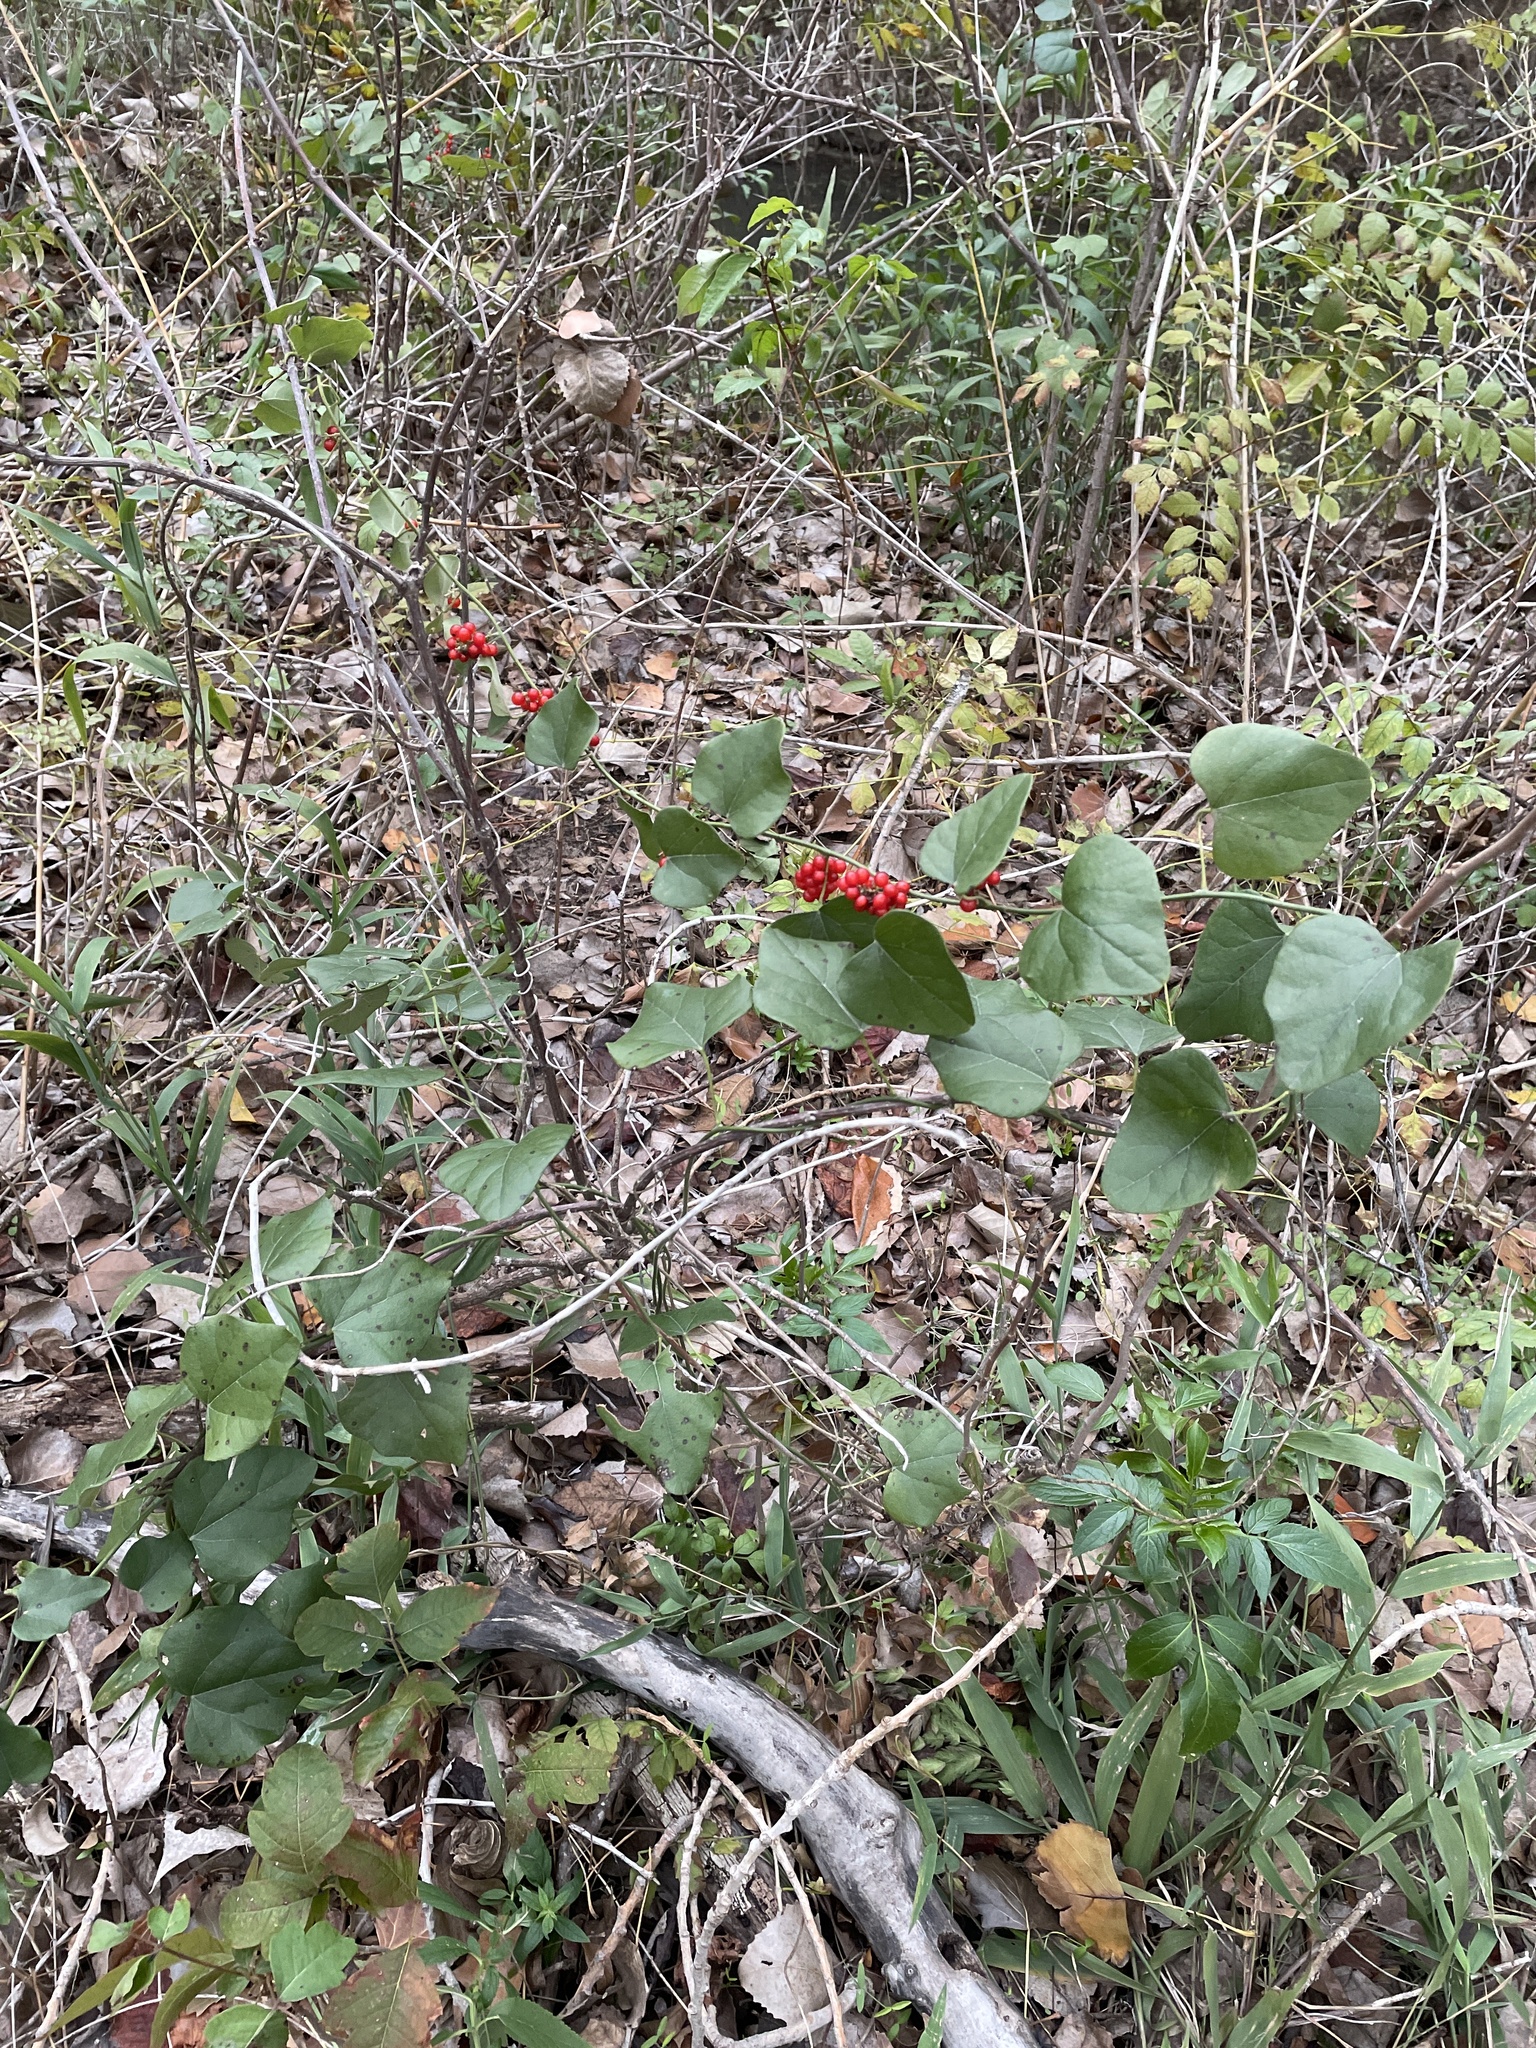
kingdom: Plantae
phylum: Tracheophyta
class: Magnoliopsida
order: Ranunculales
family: Menispermaceae
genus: Cocculus
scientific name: Cocculus carolinus
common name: Carolina moonseed
